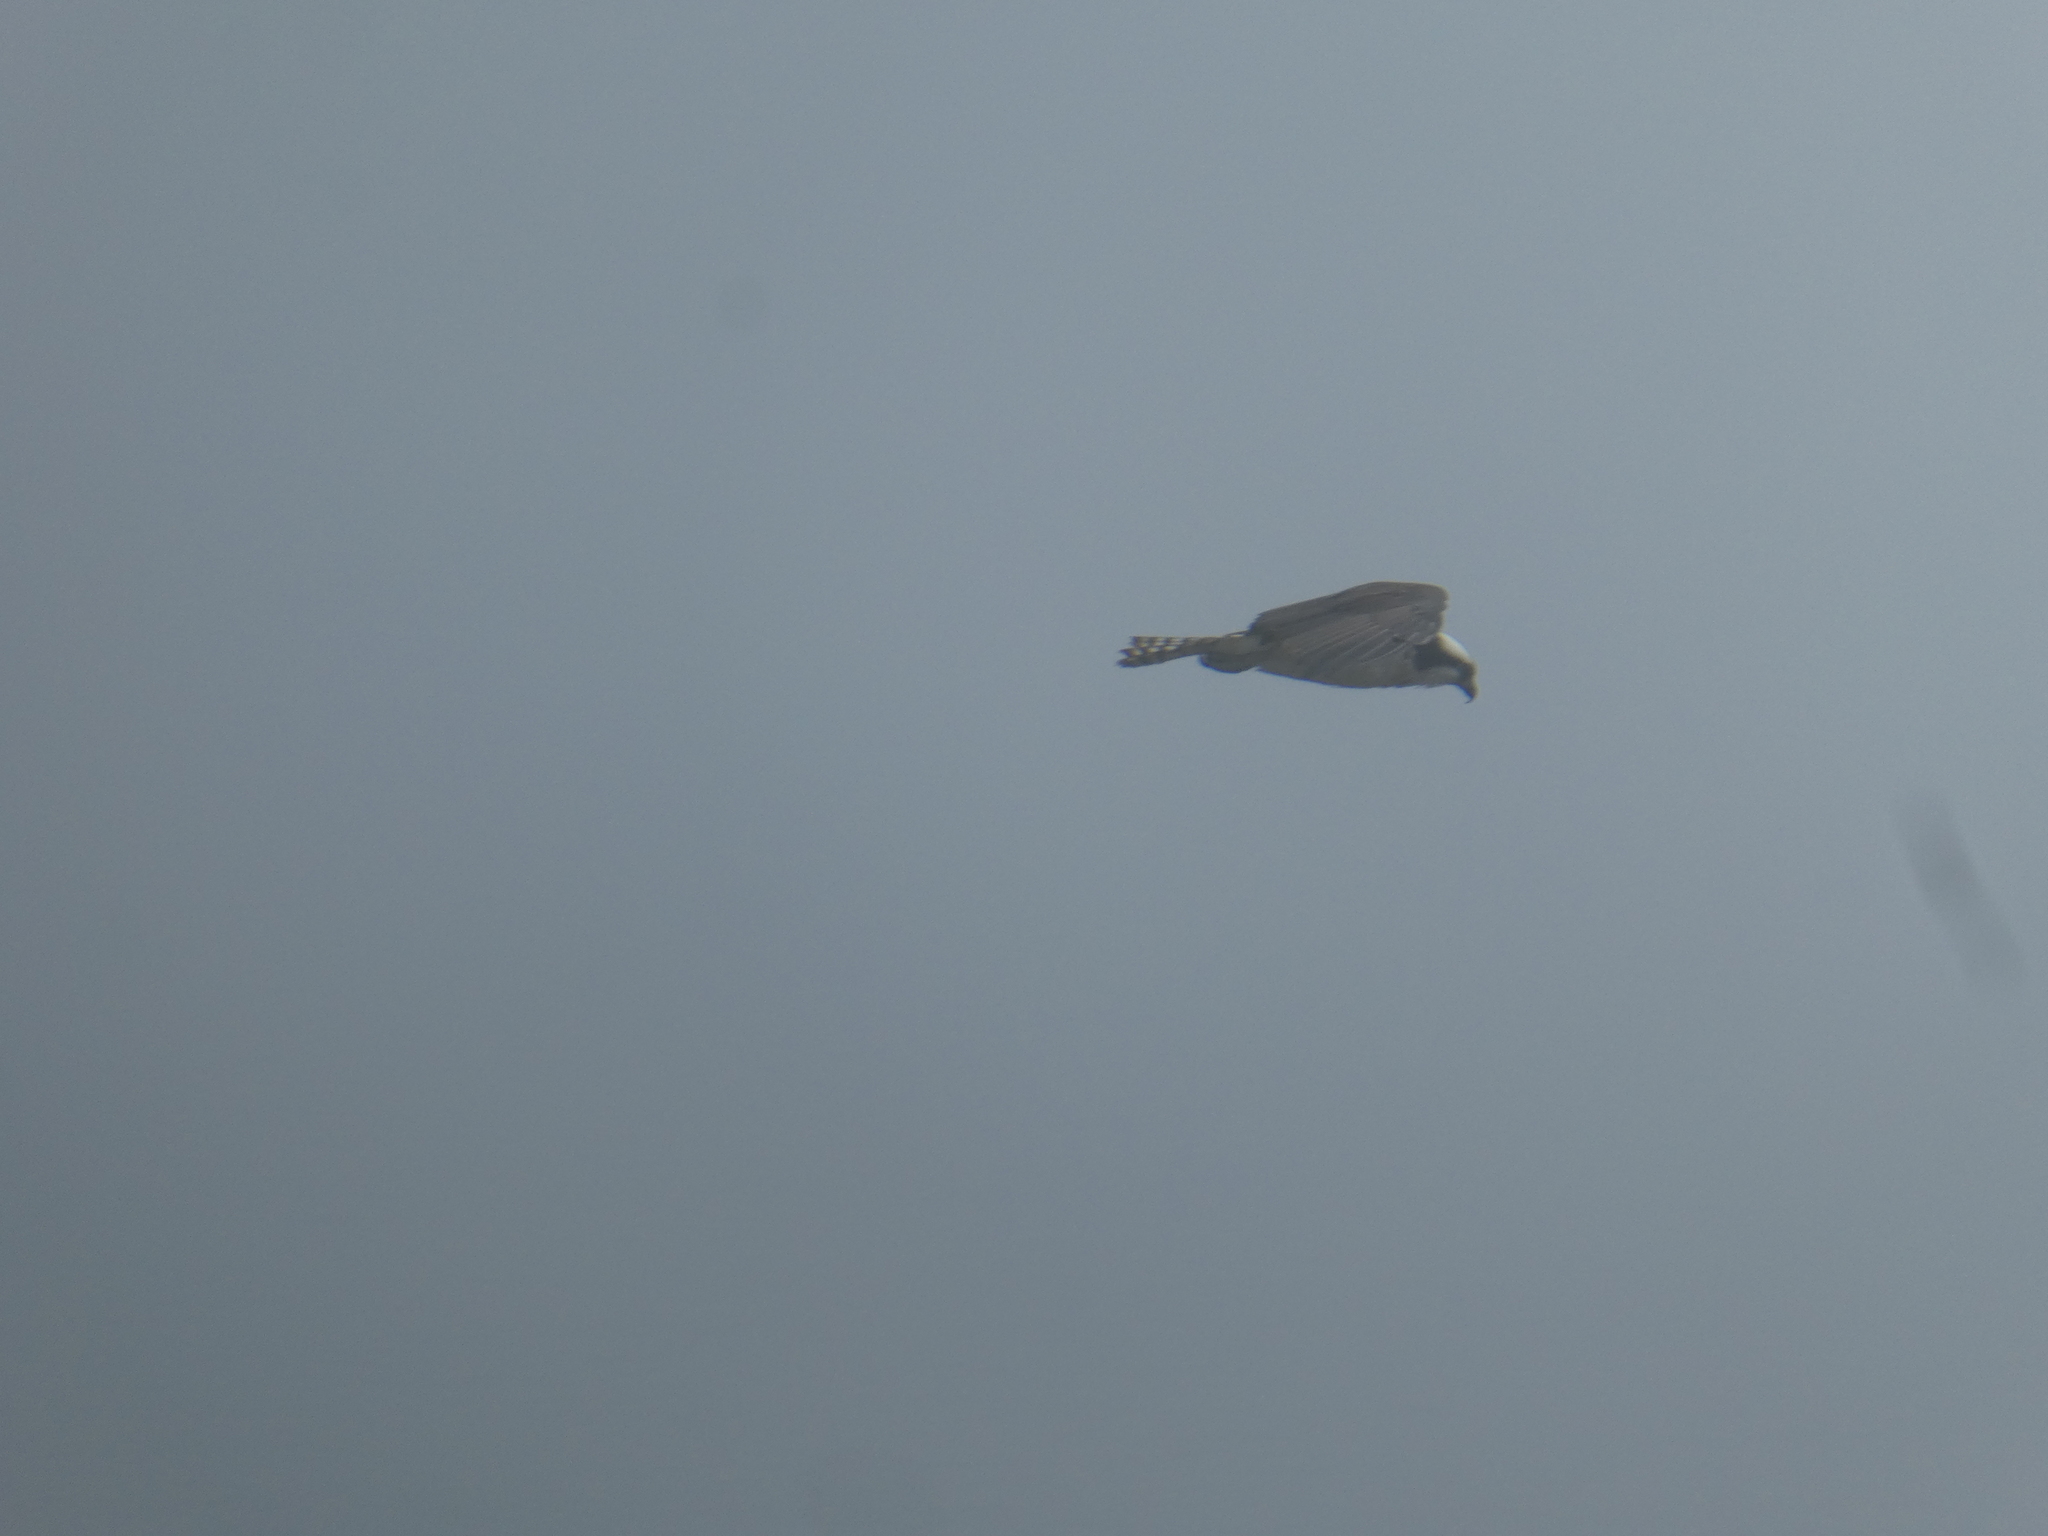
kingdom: Animalia
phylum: Chordata
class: Aves
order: Accipitriformes
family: Pandionidae
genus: Pandion
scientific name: Pandion haliaetus
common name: Osprey
